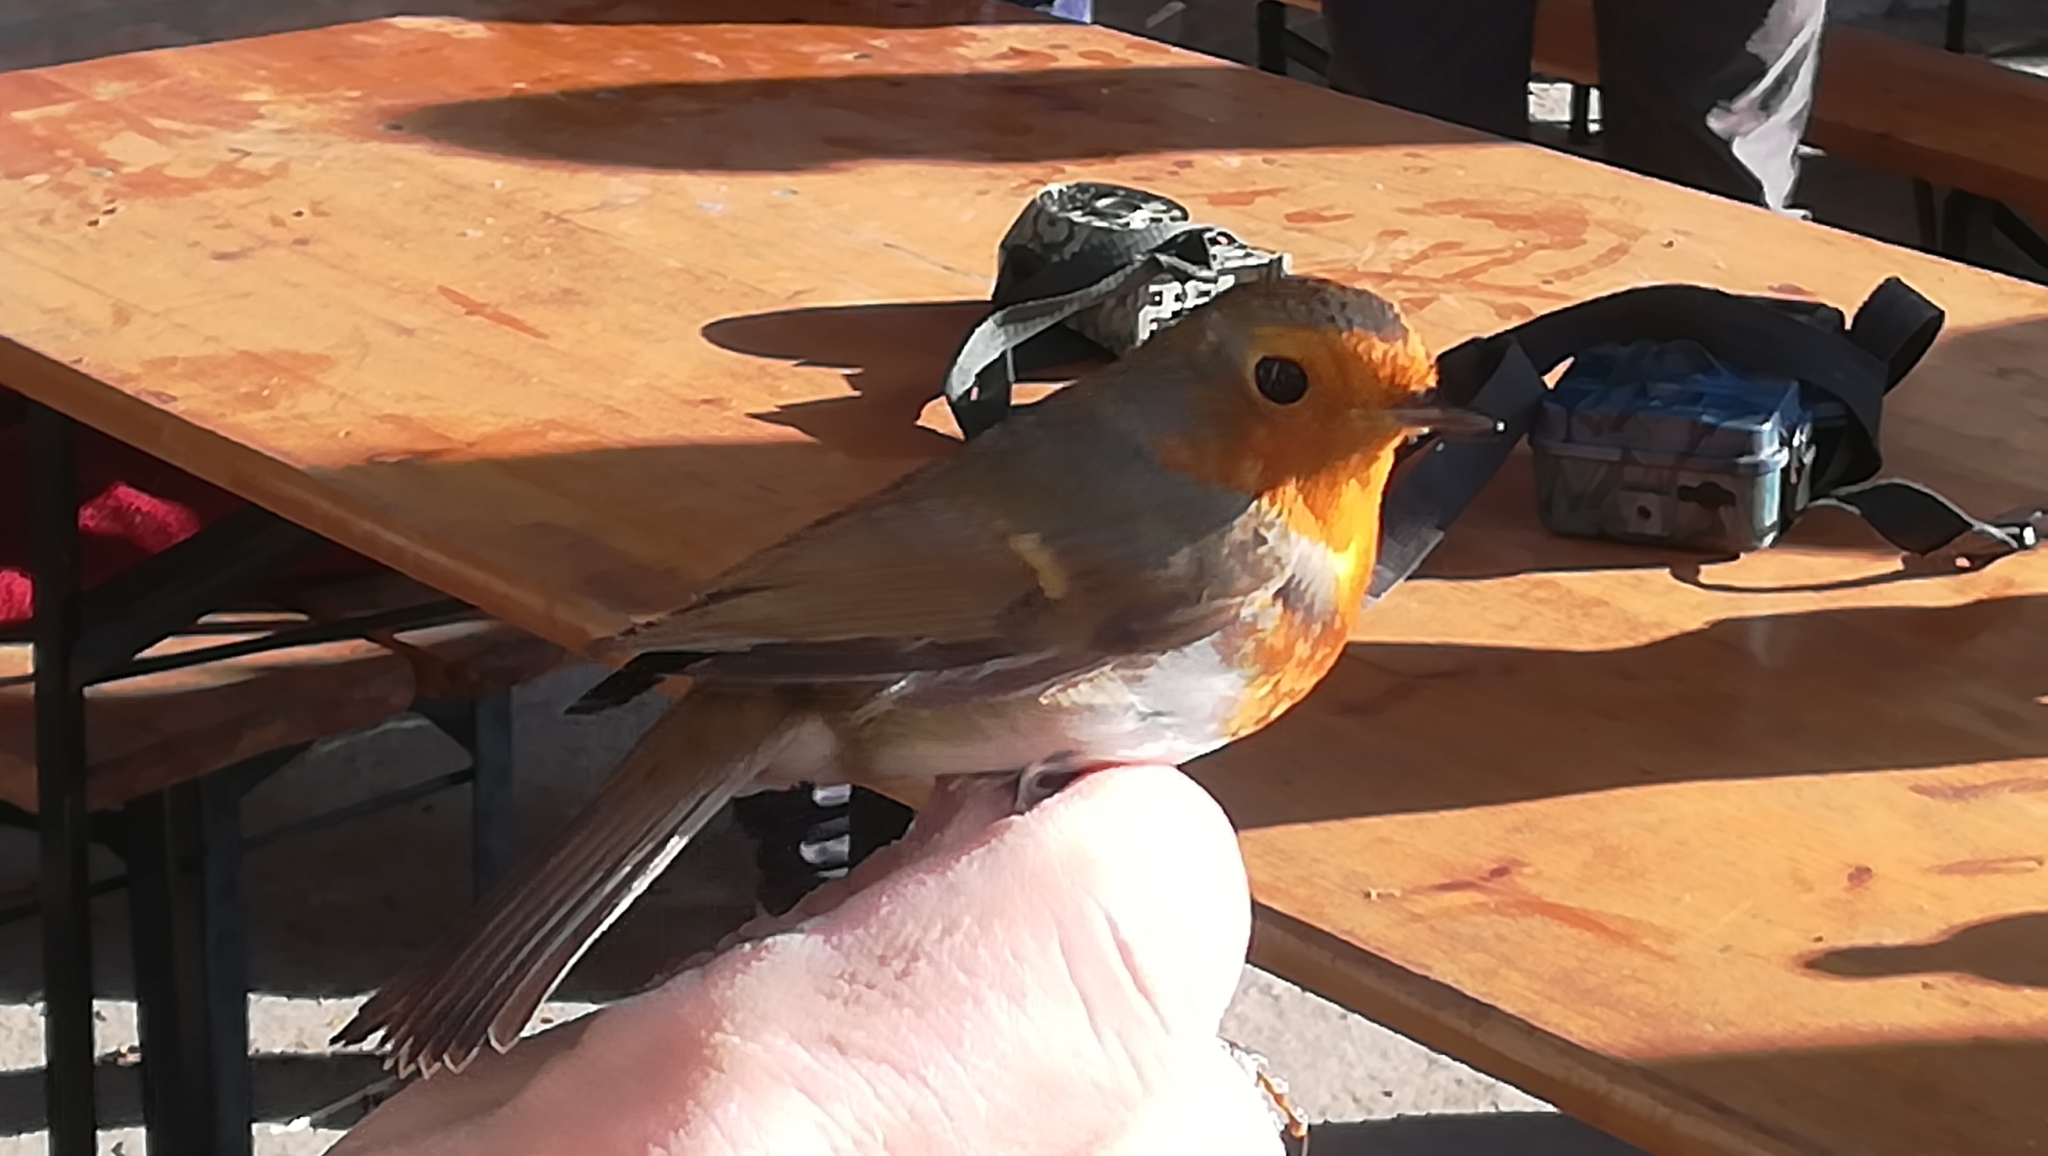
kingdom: Animalia
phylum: Chordata
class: Aves
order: Passeriformes
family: Muscicapidae
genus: Erithacus
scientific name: Erithacus rubecula
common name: European robin
